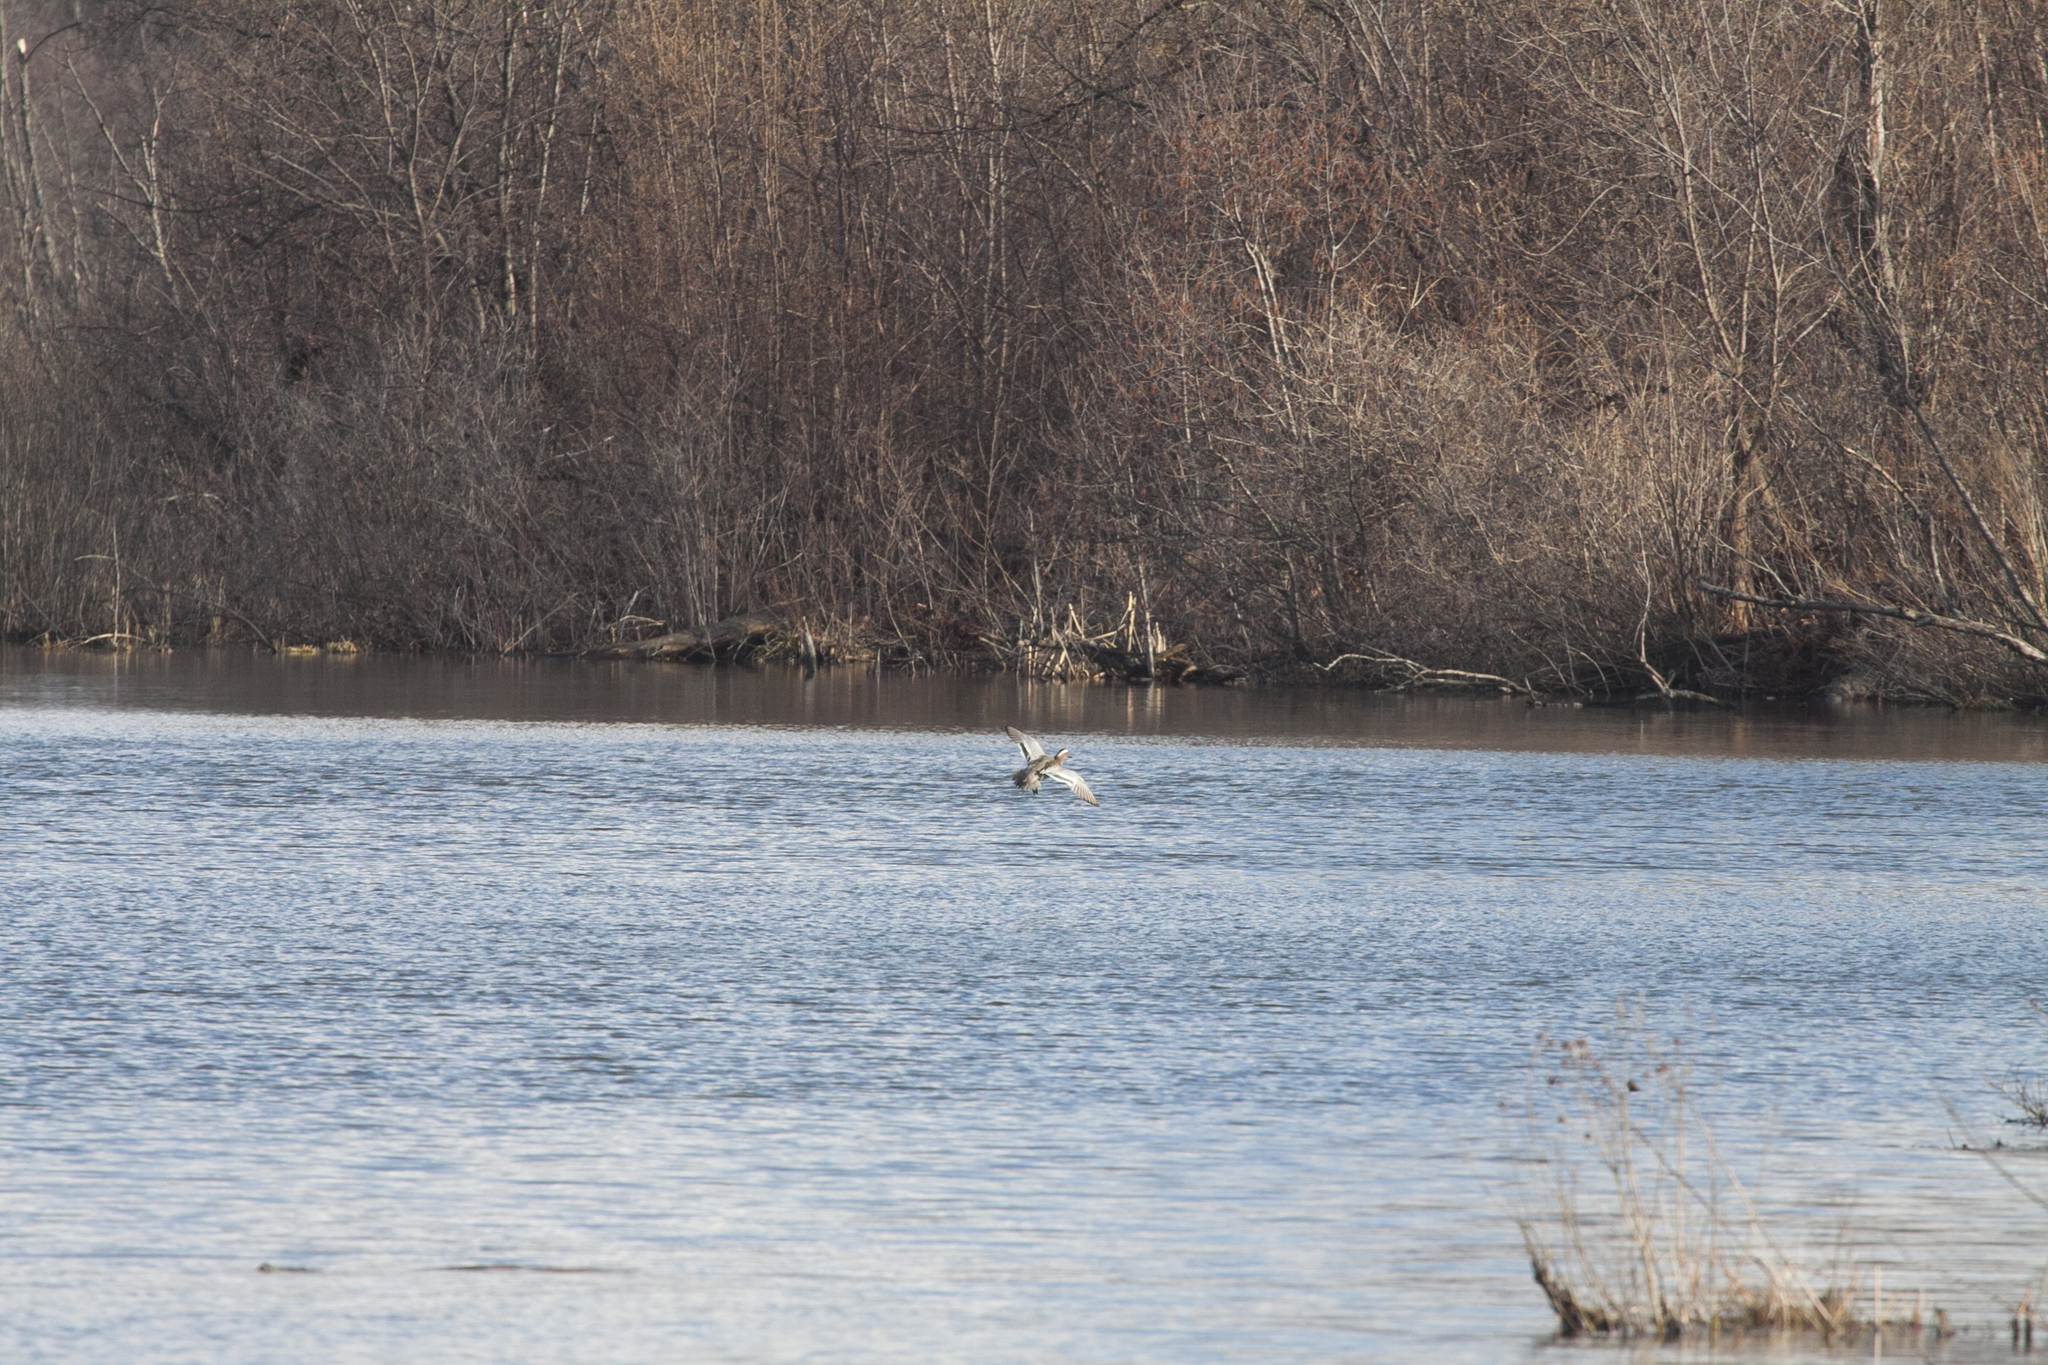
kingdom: Animalia
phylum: Chordata
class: Aves
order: Anseriformes
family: Anatidae
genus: Spatula
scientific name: Spatula querquedula
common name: Garganey
